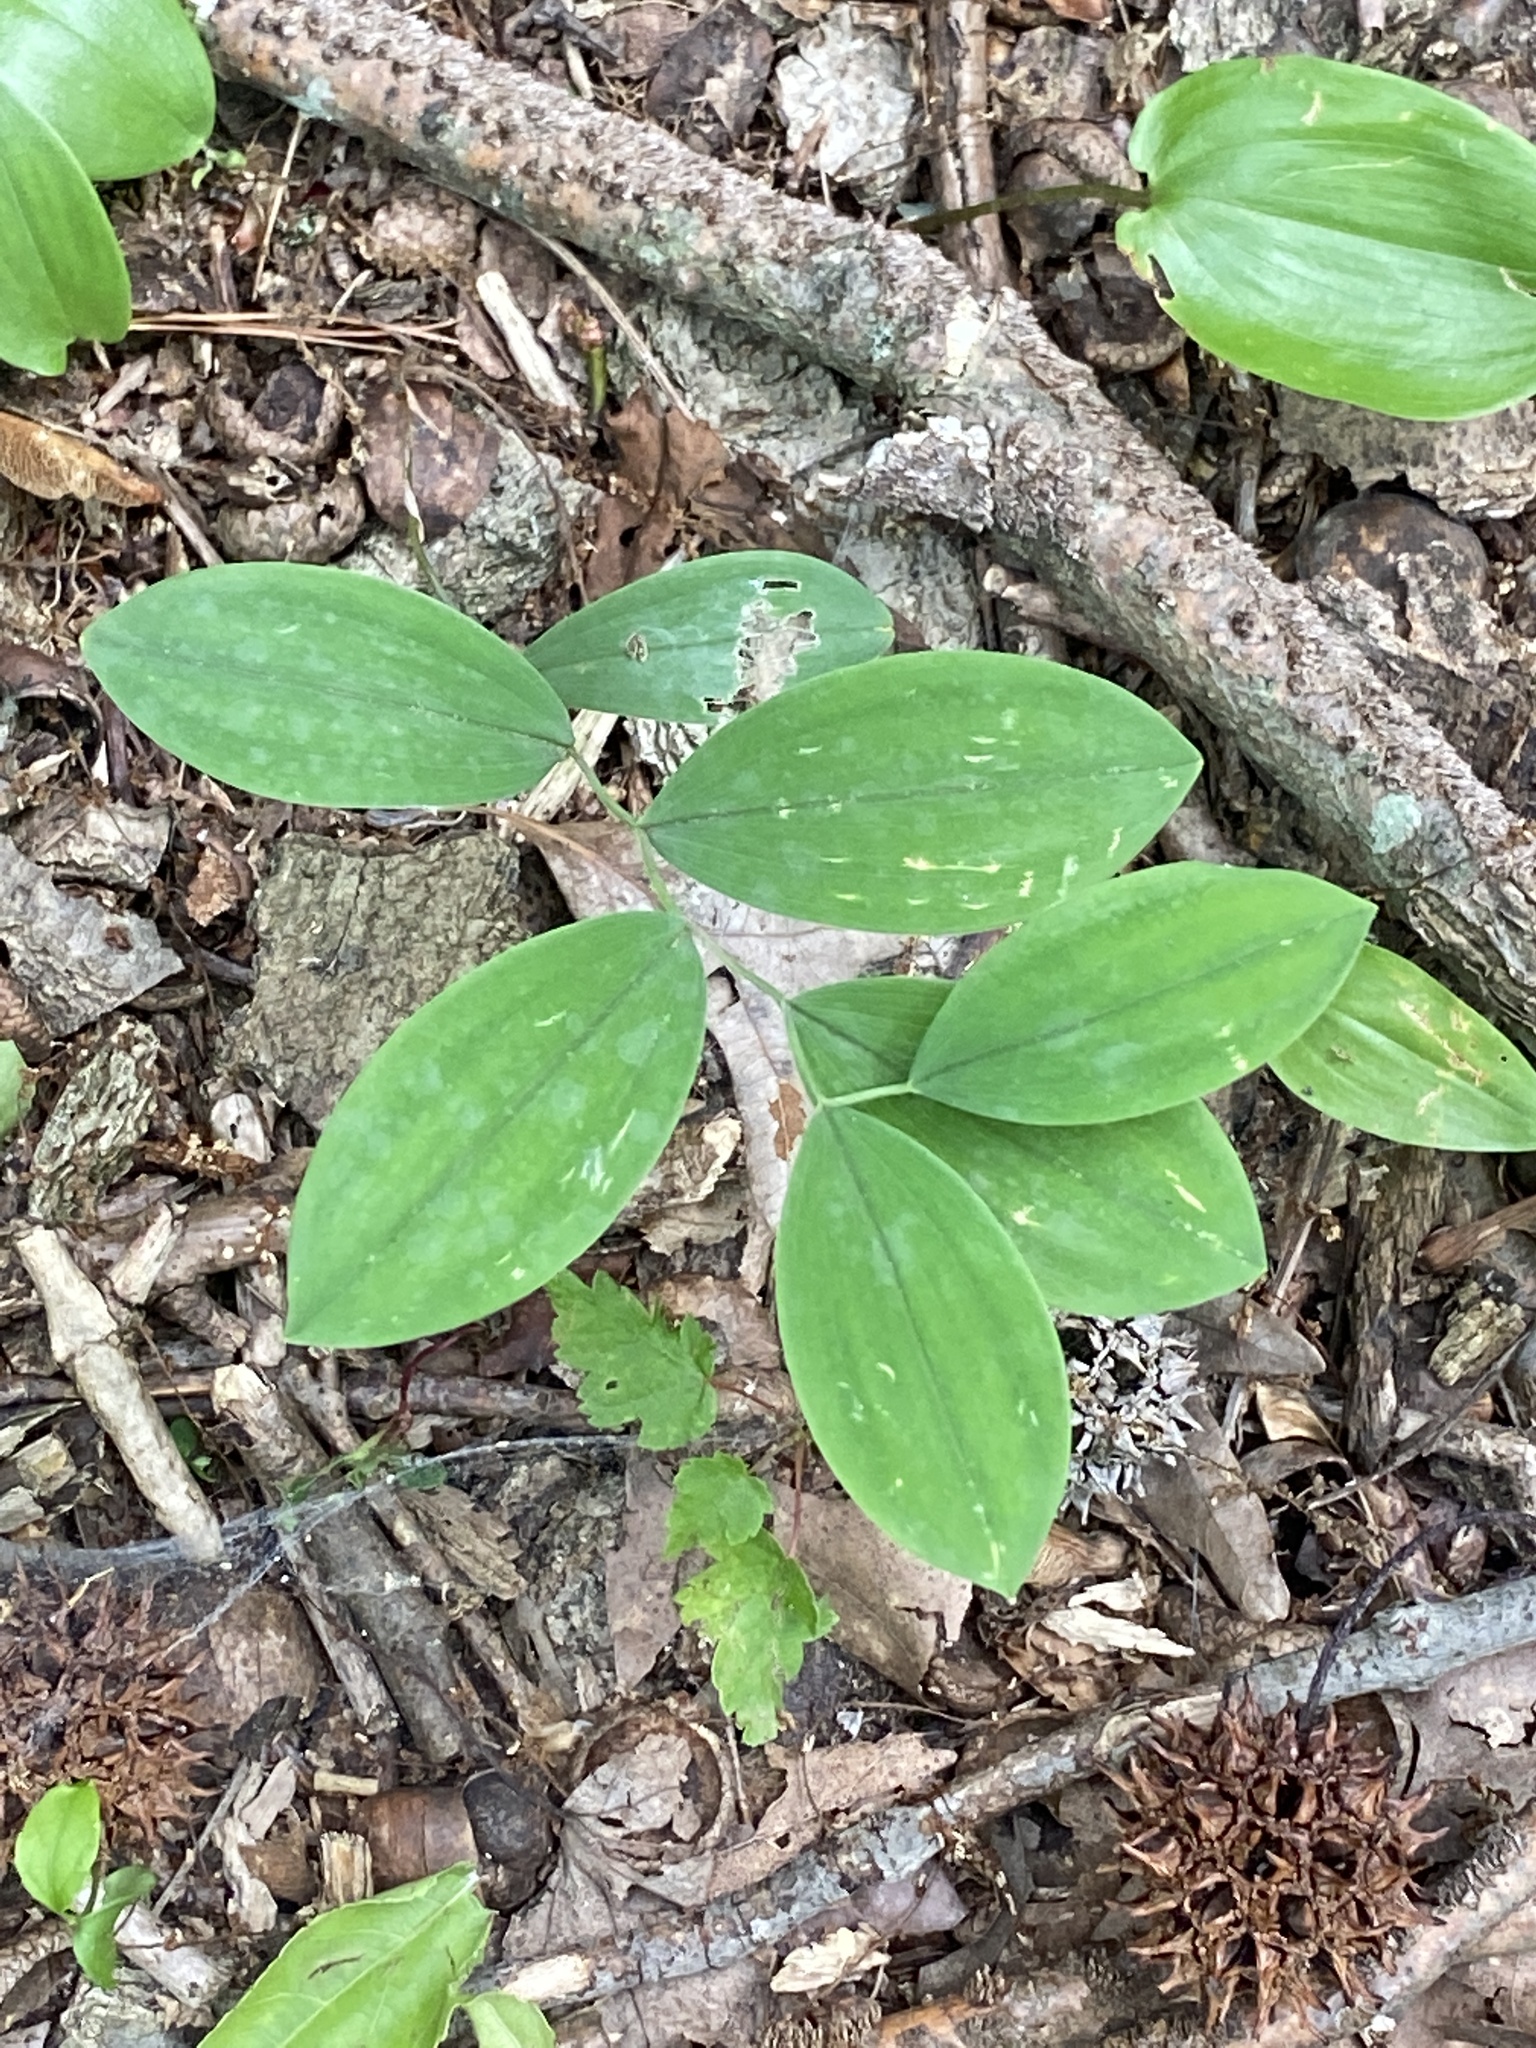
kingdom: Plantae
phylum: Tracheophyta
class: Liliopsida
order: Liliales
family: Colchicaceae
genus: Uvularia
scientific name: Uvularia sessilifolia
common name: Straw-lily
